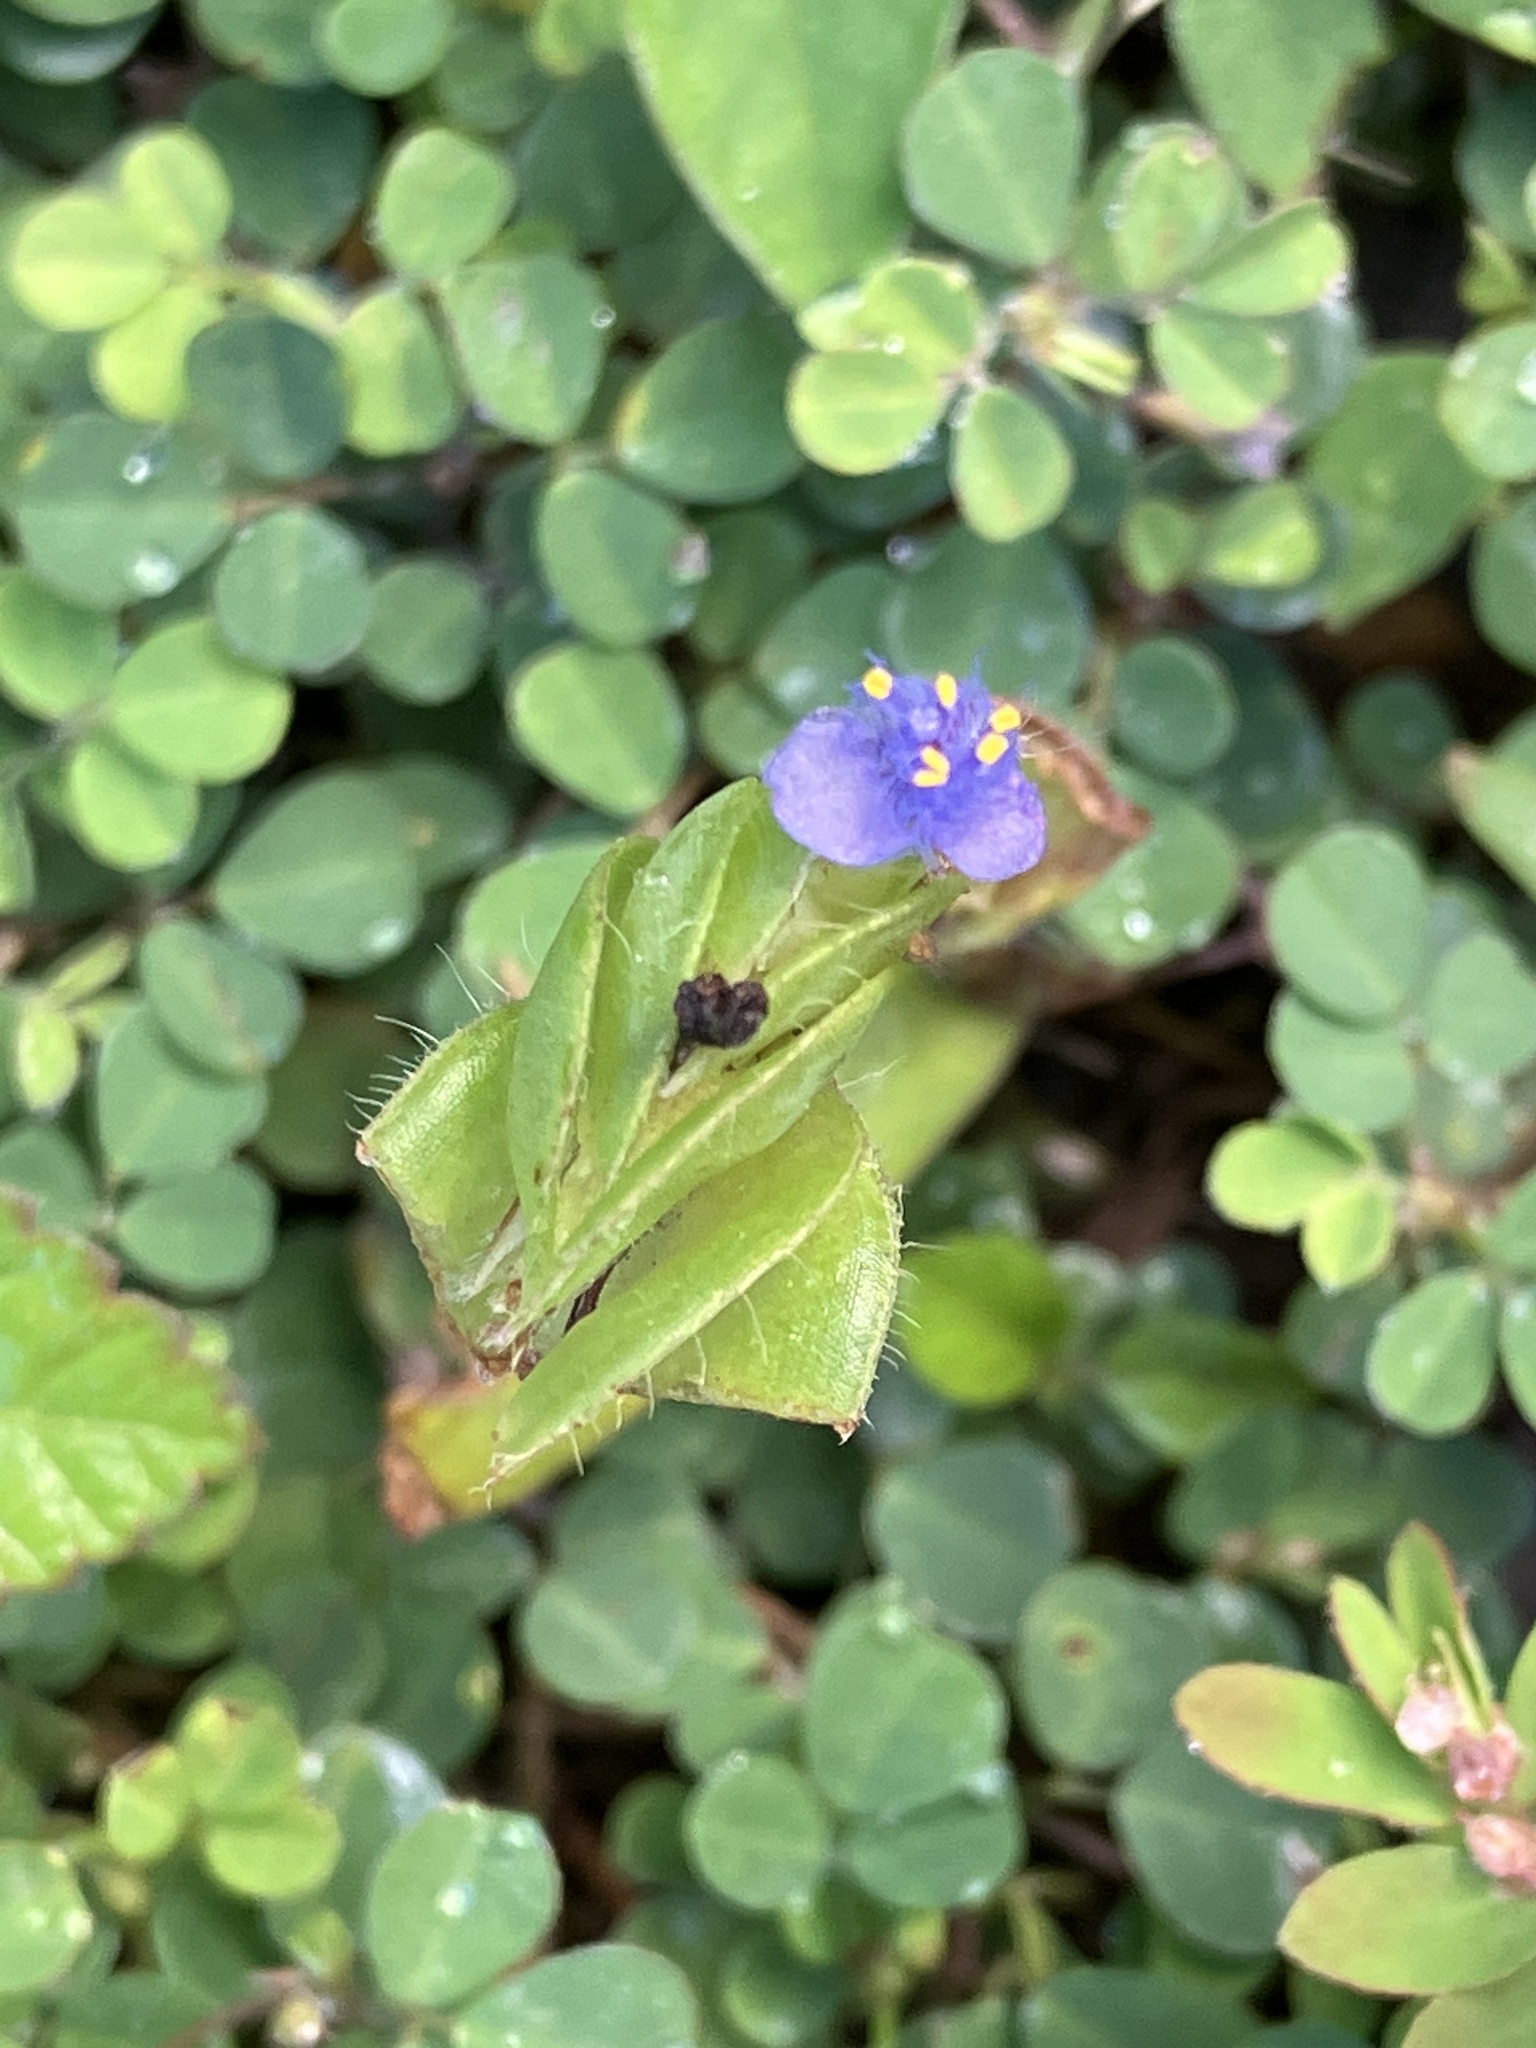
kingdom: Plantae
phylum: Tracheophyta
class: Liliopsida
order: Commelinales
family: Commelinaceae
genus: Commelina
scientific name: Commelina diffusa
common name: Climbing dayflower
